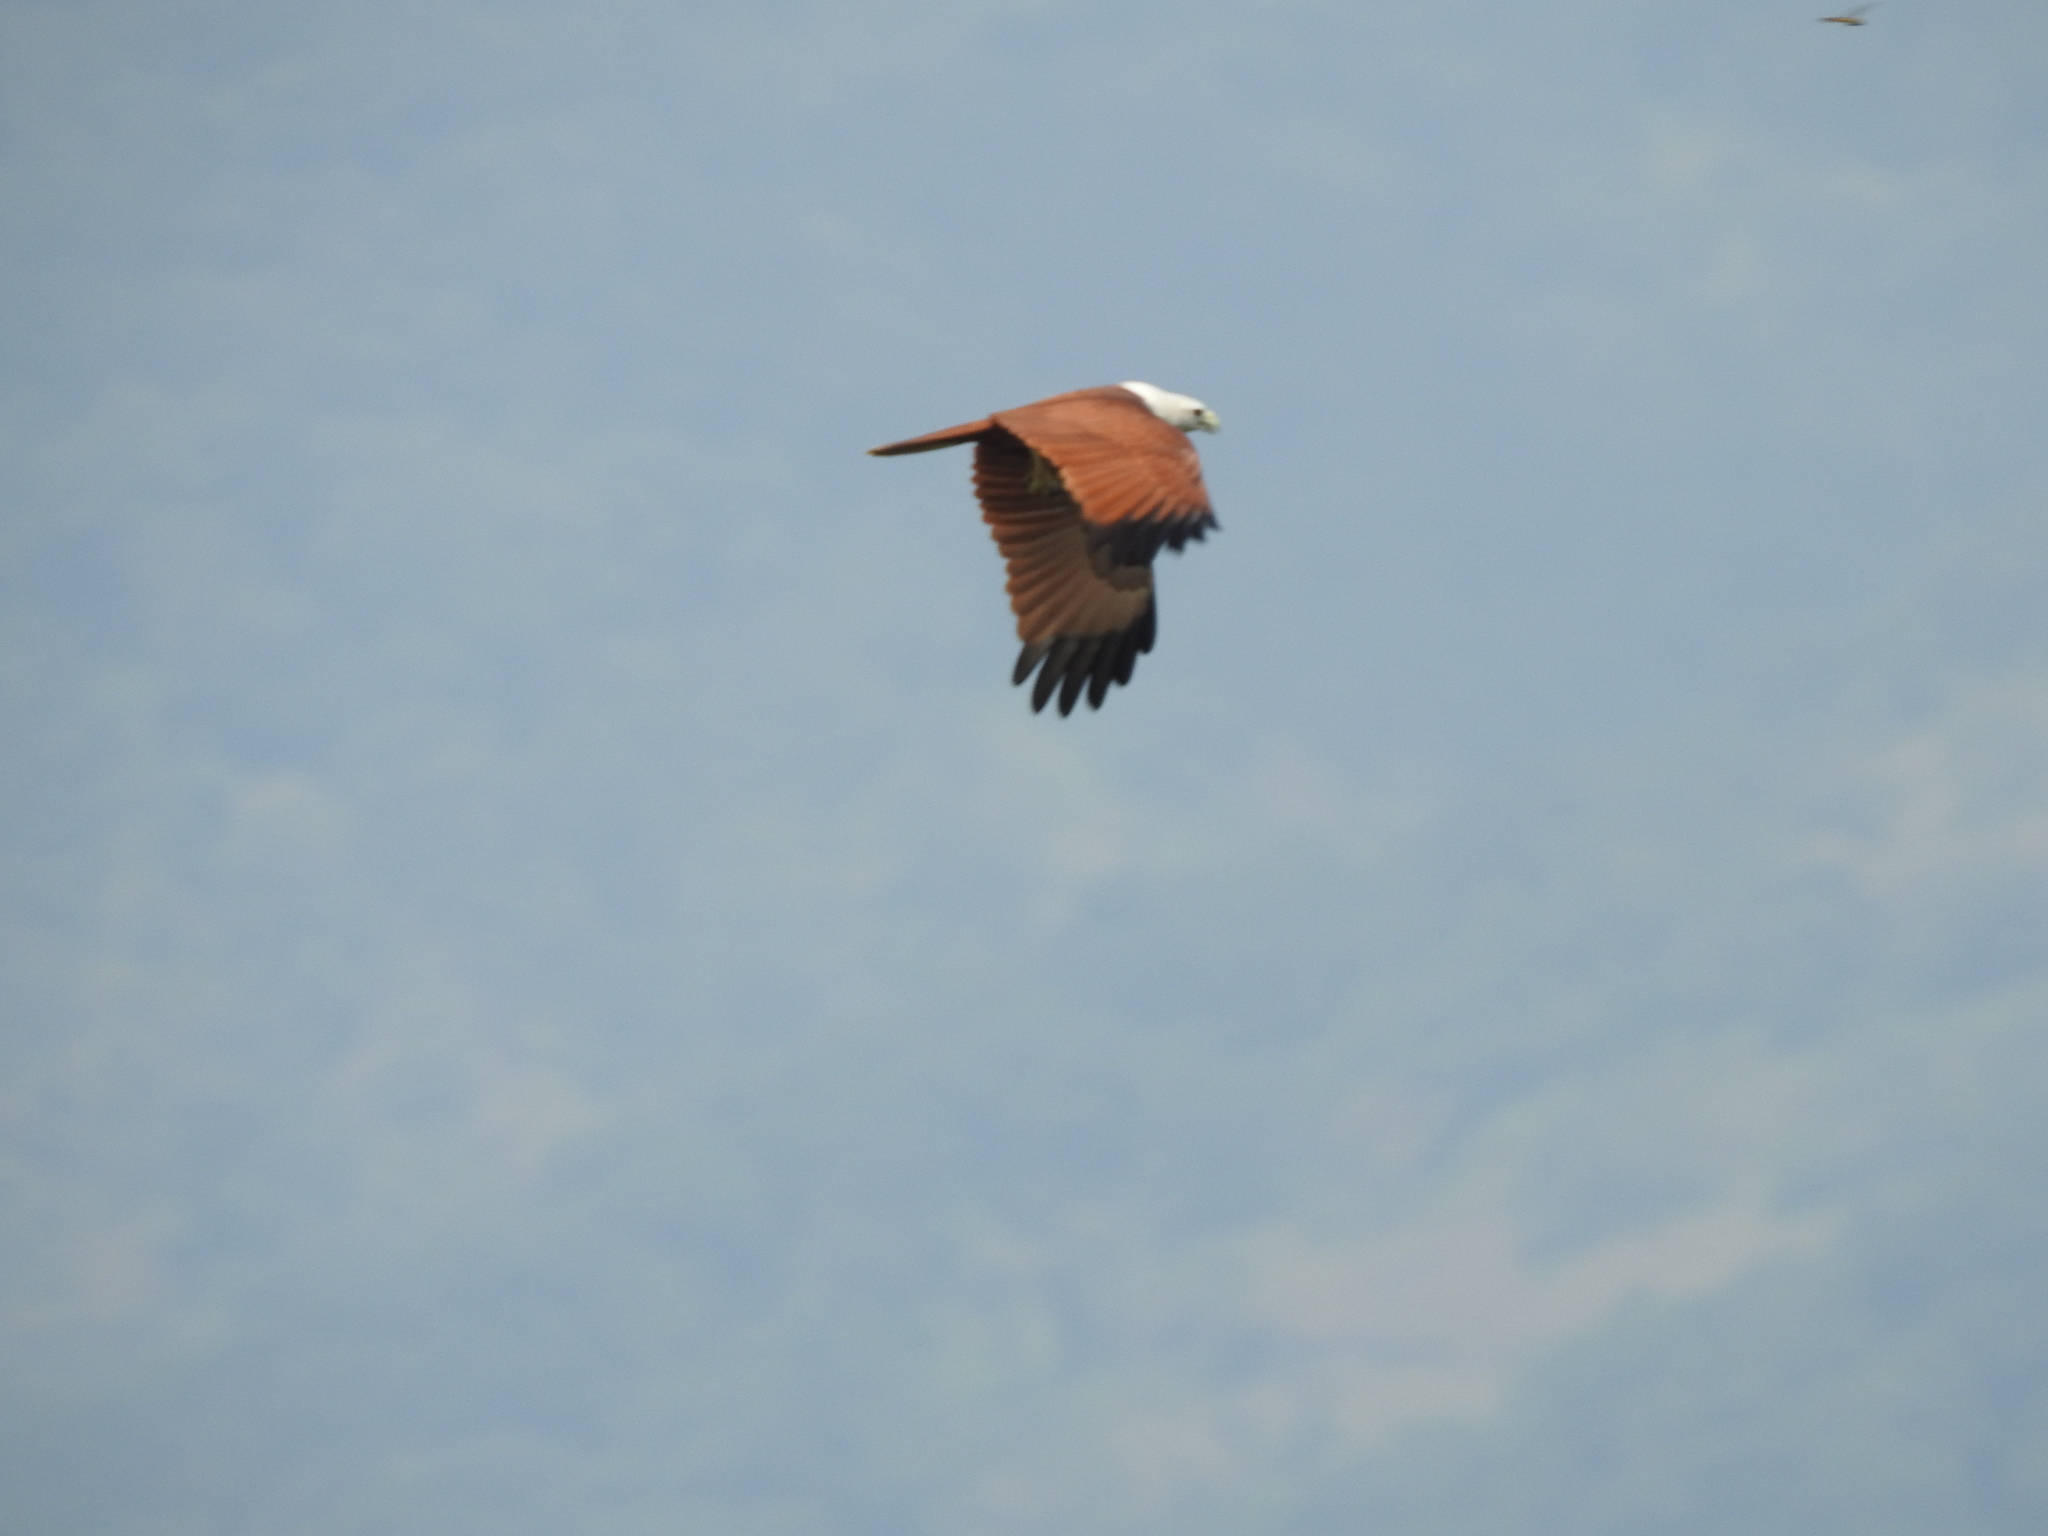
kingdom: Animalia
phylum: Chordata
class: Aves
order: Accipitriformes
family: Accipitridae
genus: Haliastur
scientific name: Haliastur indus
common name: Brahminy kite
